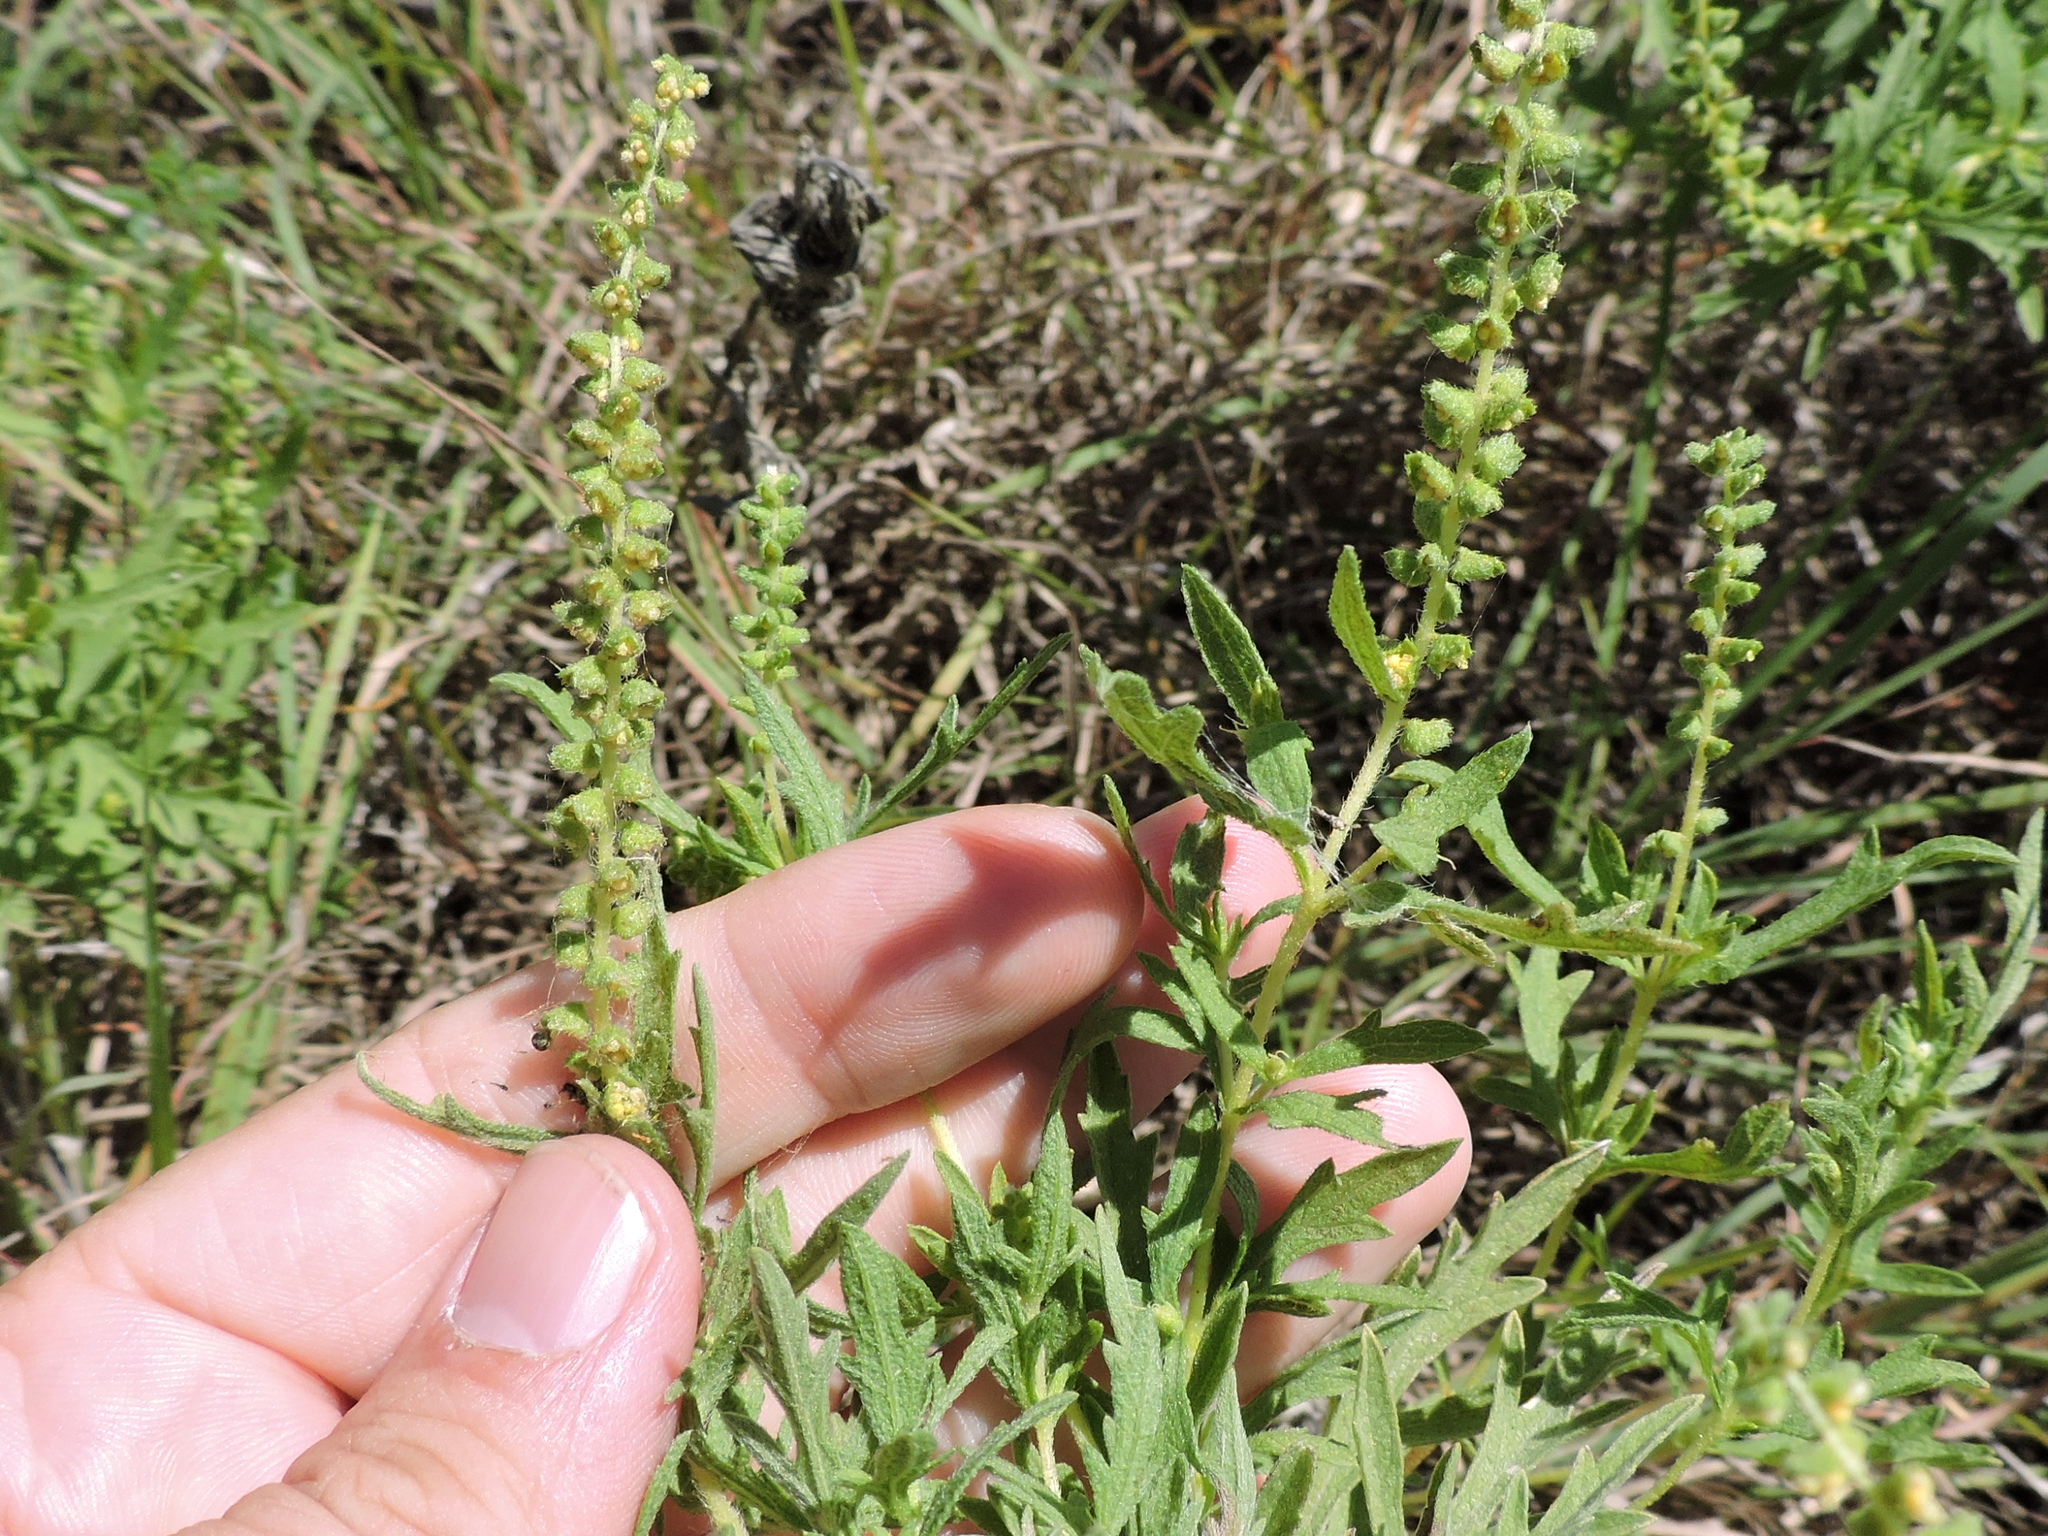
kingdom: Plantae
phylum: Tracheophyta
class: Magnoliopsida
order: Asterales
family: Asteraceae
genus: Ambrosia
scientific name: Ambrosia psilostachya
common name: Perennial ragweed
